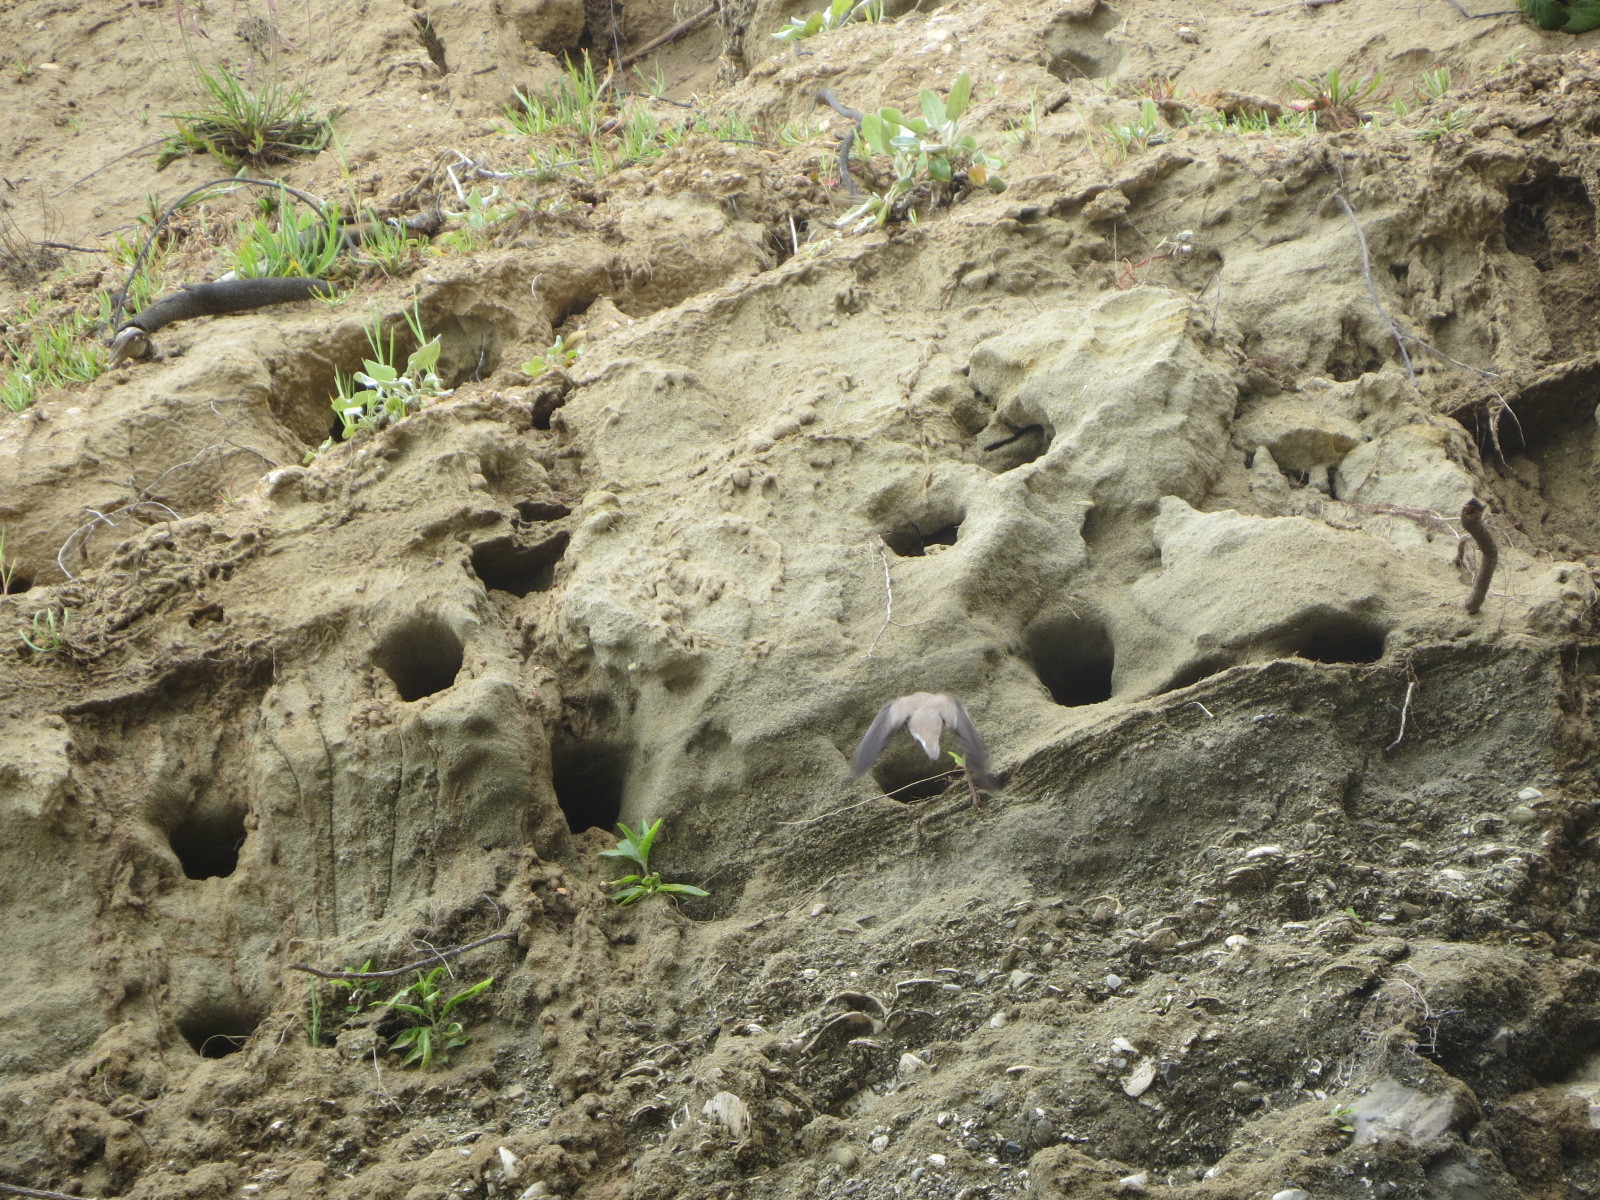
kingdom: Animalia
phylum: Chordata
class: Aves
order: Passeriformes
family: Hirundinidae
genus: Riparia
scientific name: Riparia riparia
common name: Sand martin
